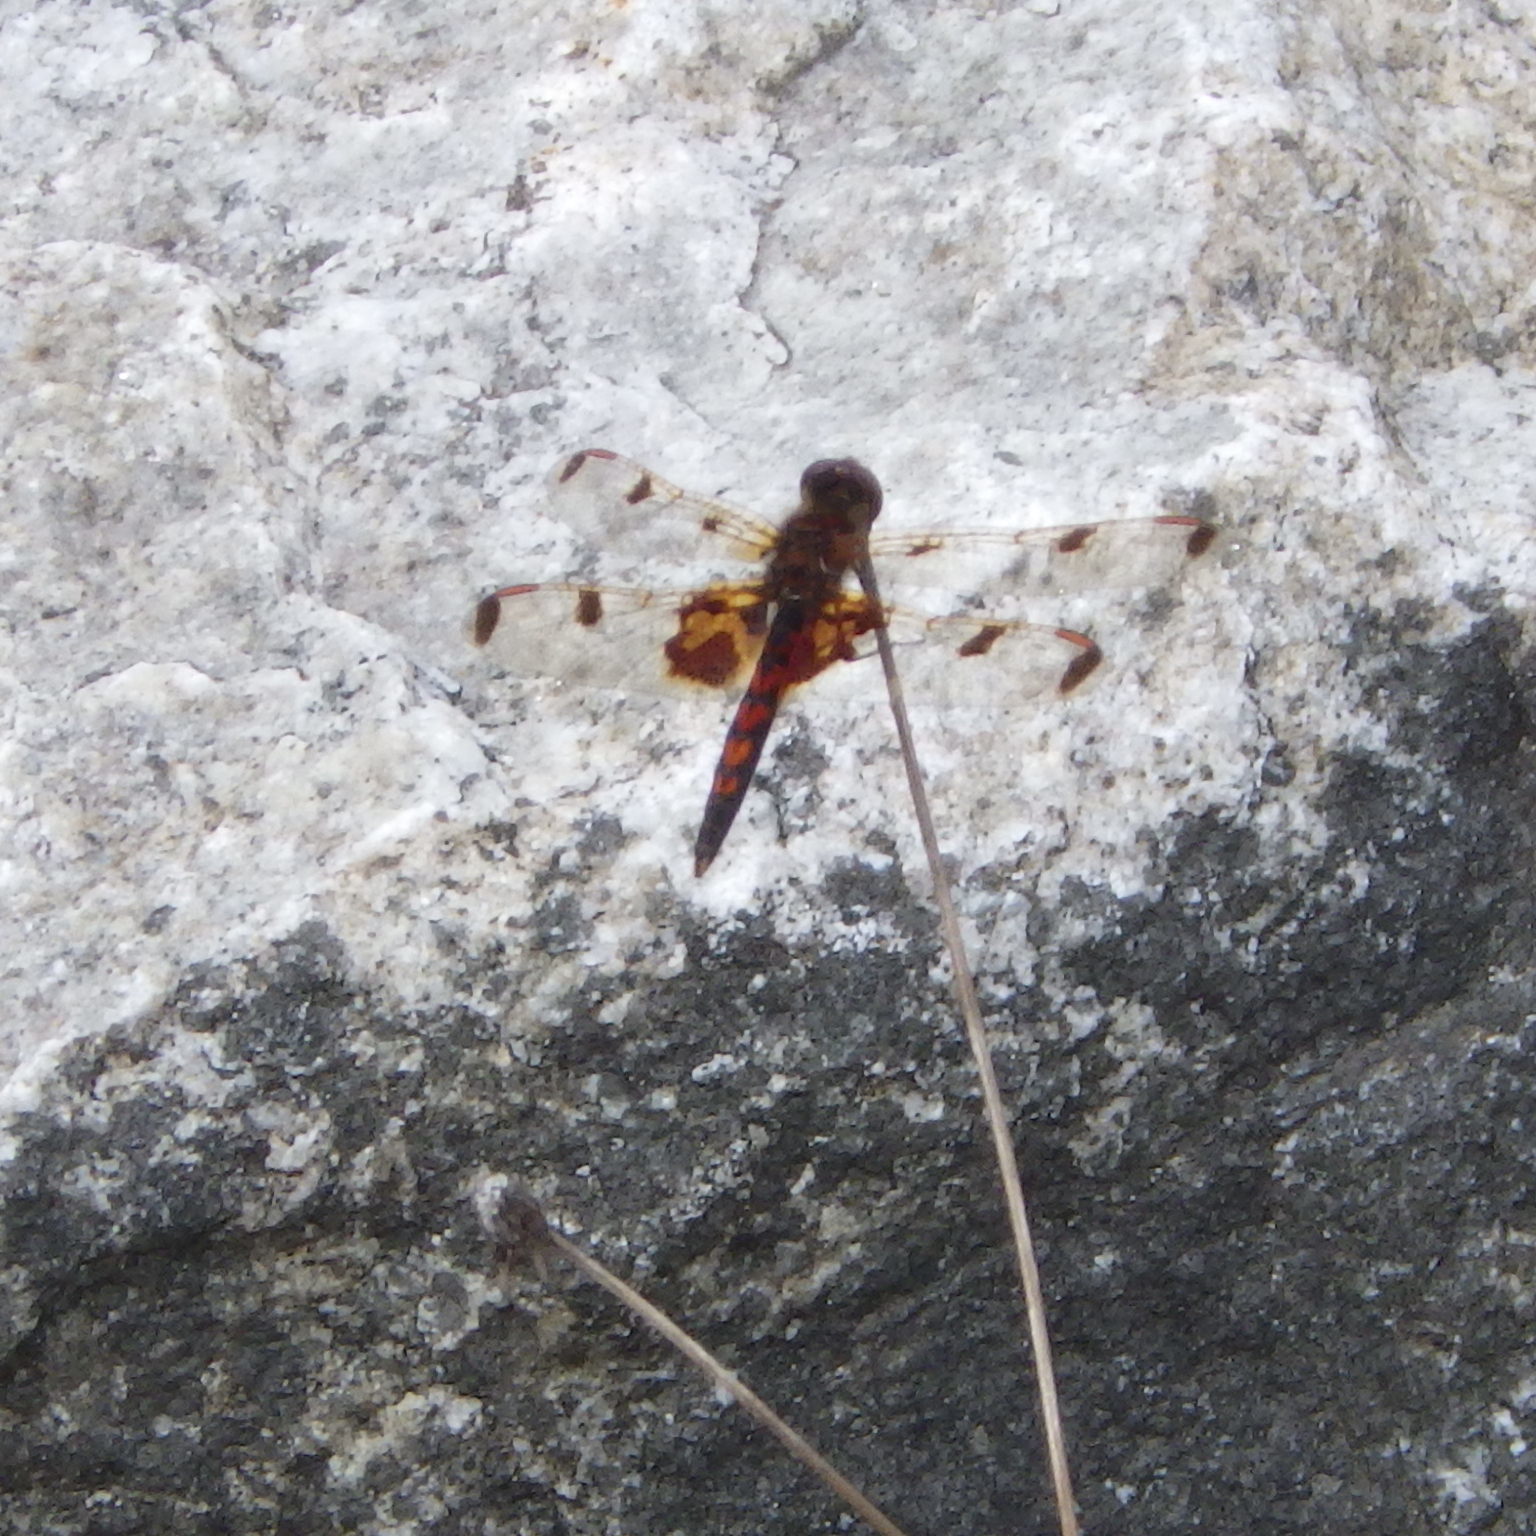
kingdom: Animalia
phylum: Arthropoda
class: Insecta
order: Odonata
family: Libellulidae
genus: Celithemis
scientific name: Celithemis elisa
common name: Calico pennant
